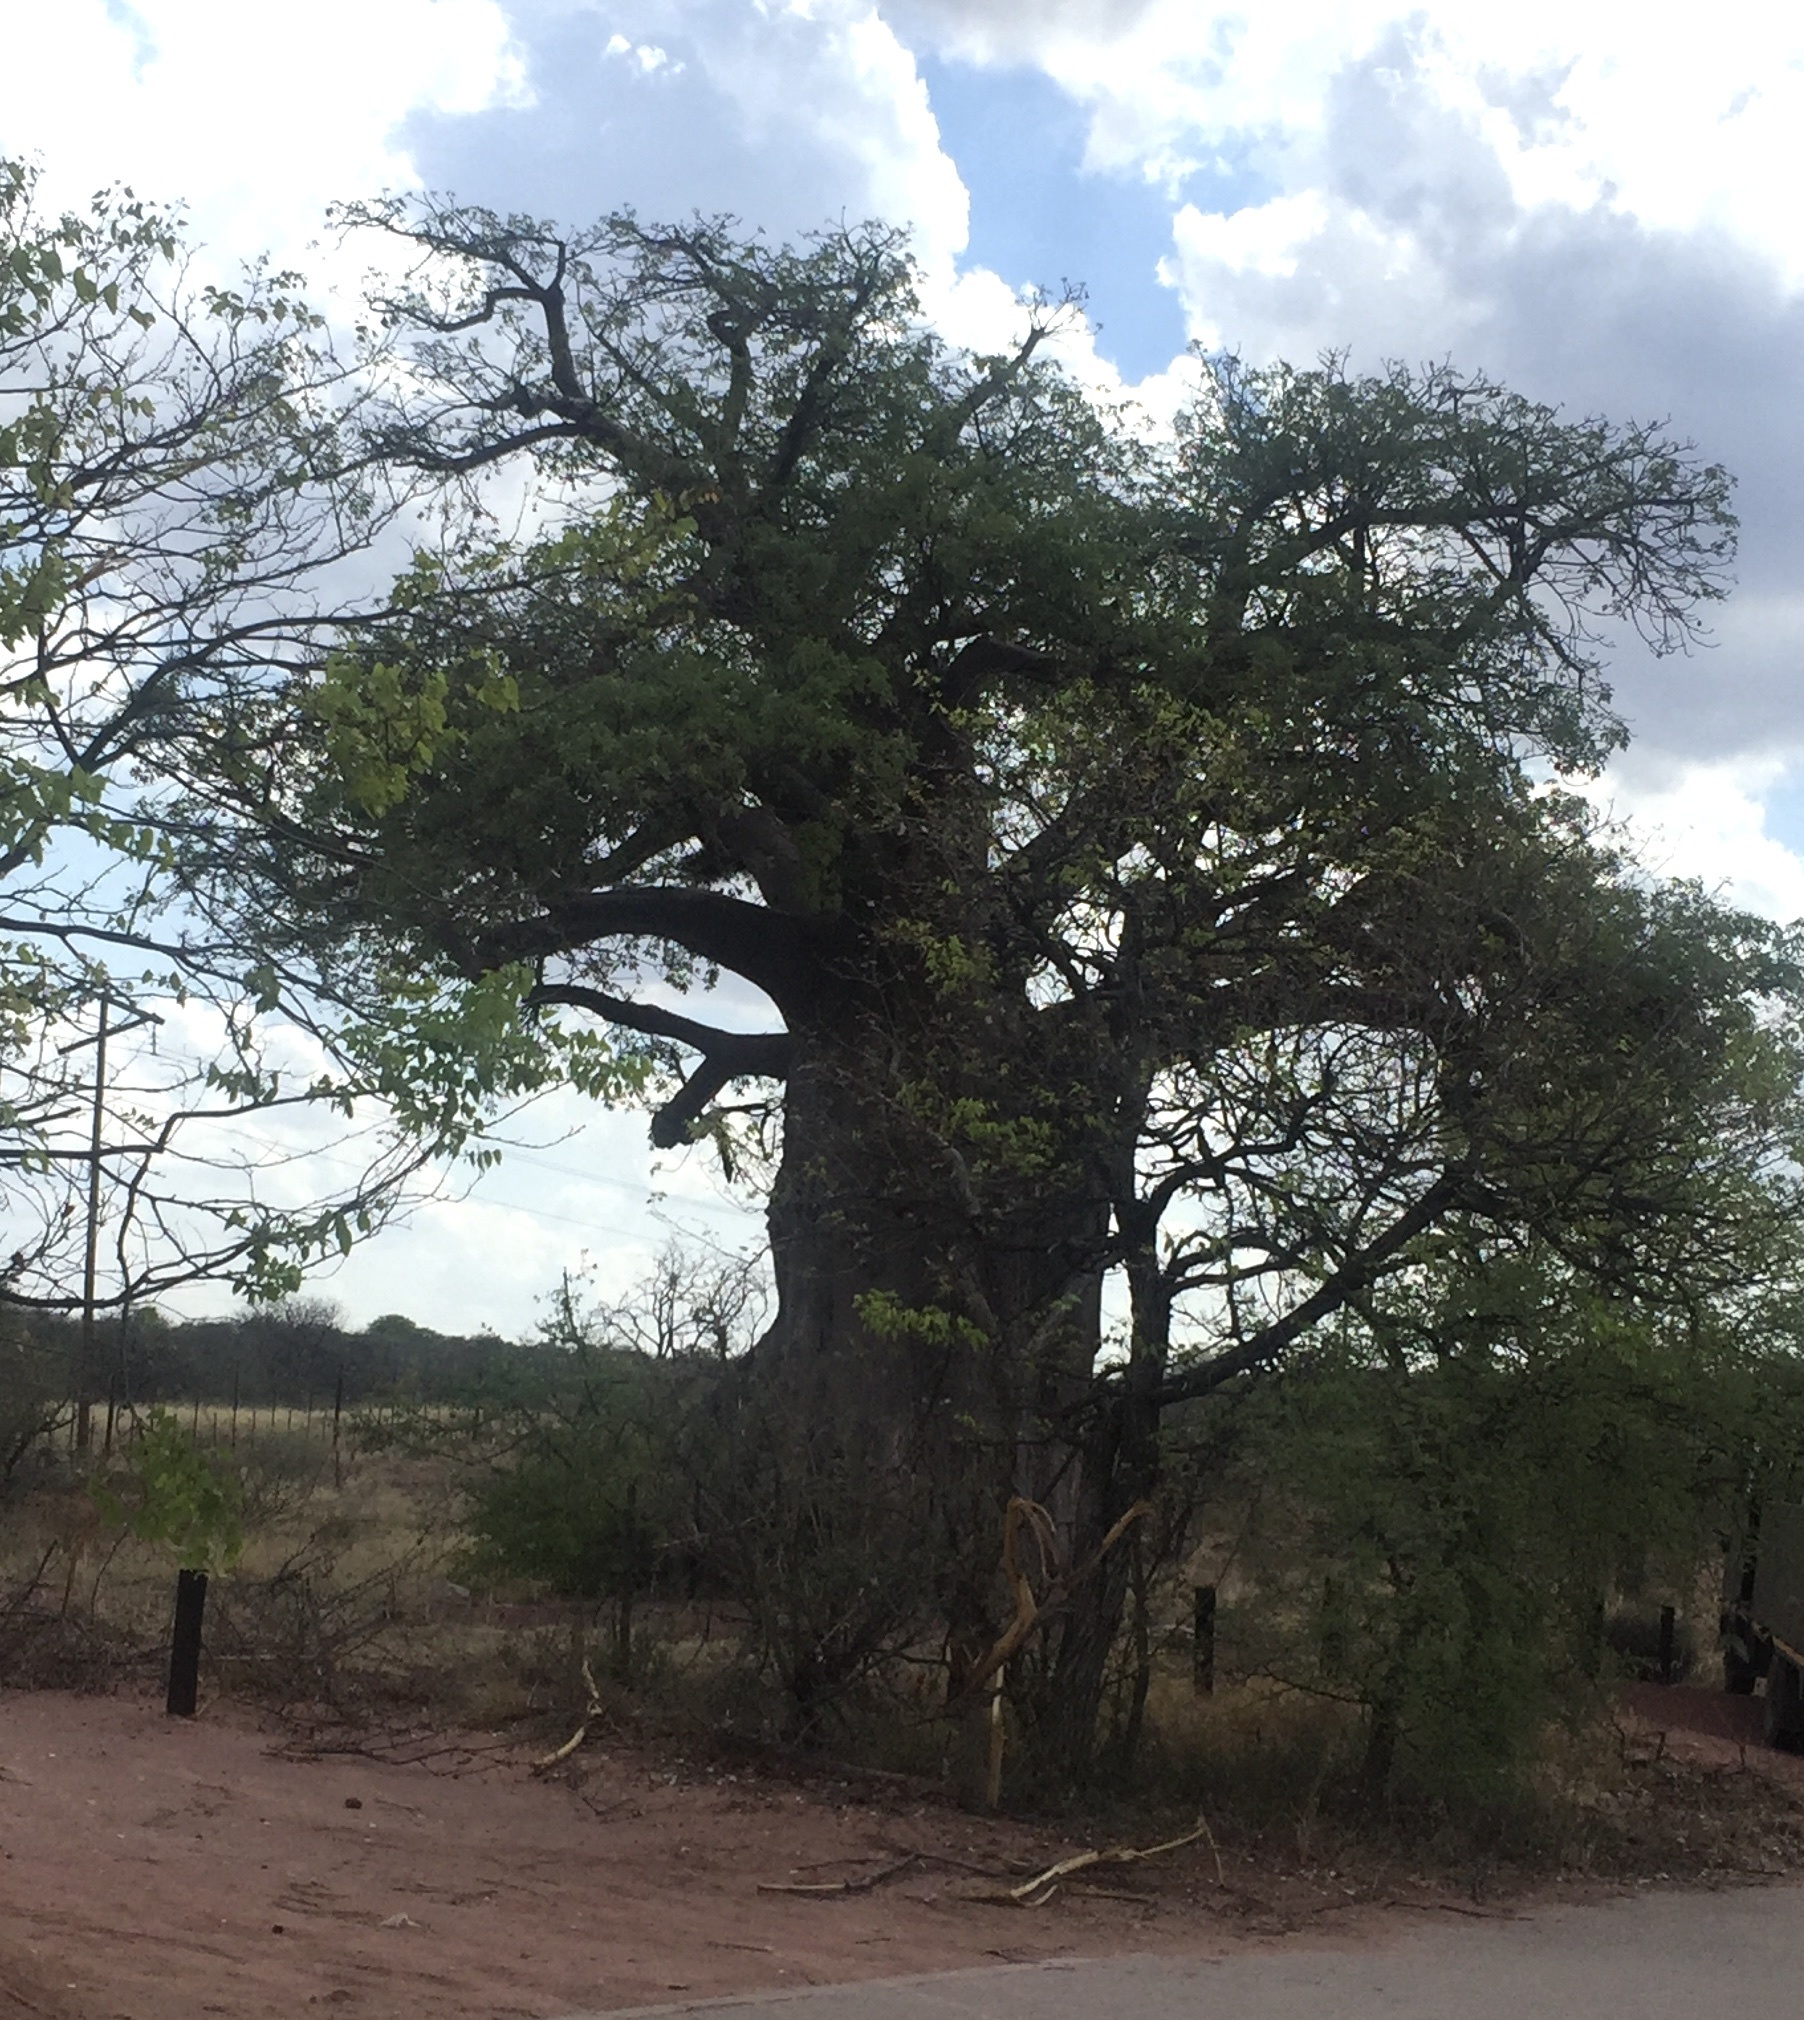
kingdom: Plantae
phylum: Tracheophyta
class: Magnoliopsida
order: Malvales
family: Malvaceae
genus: Adansonia
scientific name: Adansonia digitata
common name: Dead-rat-tree
